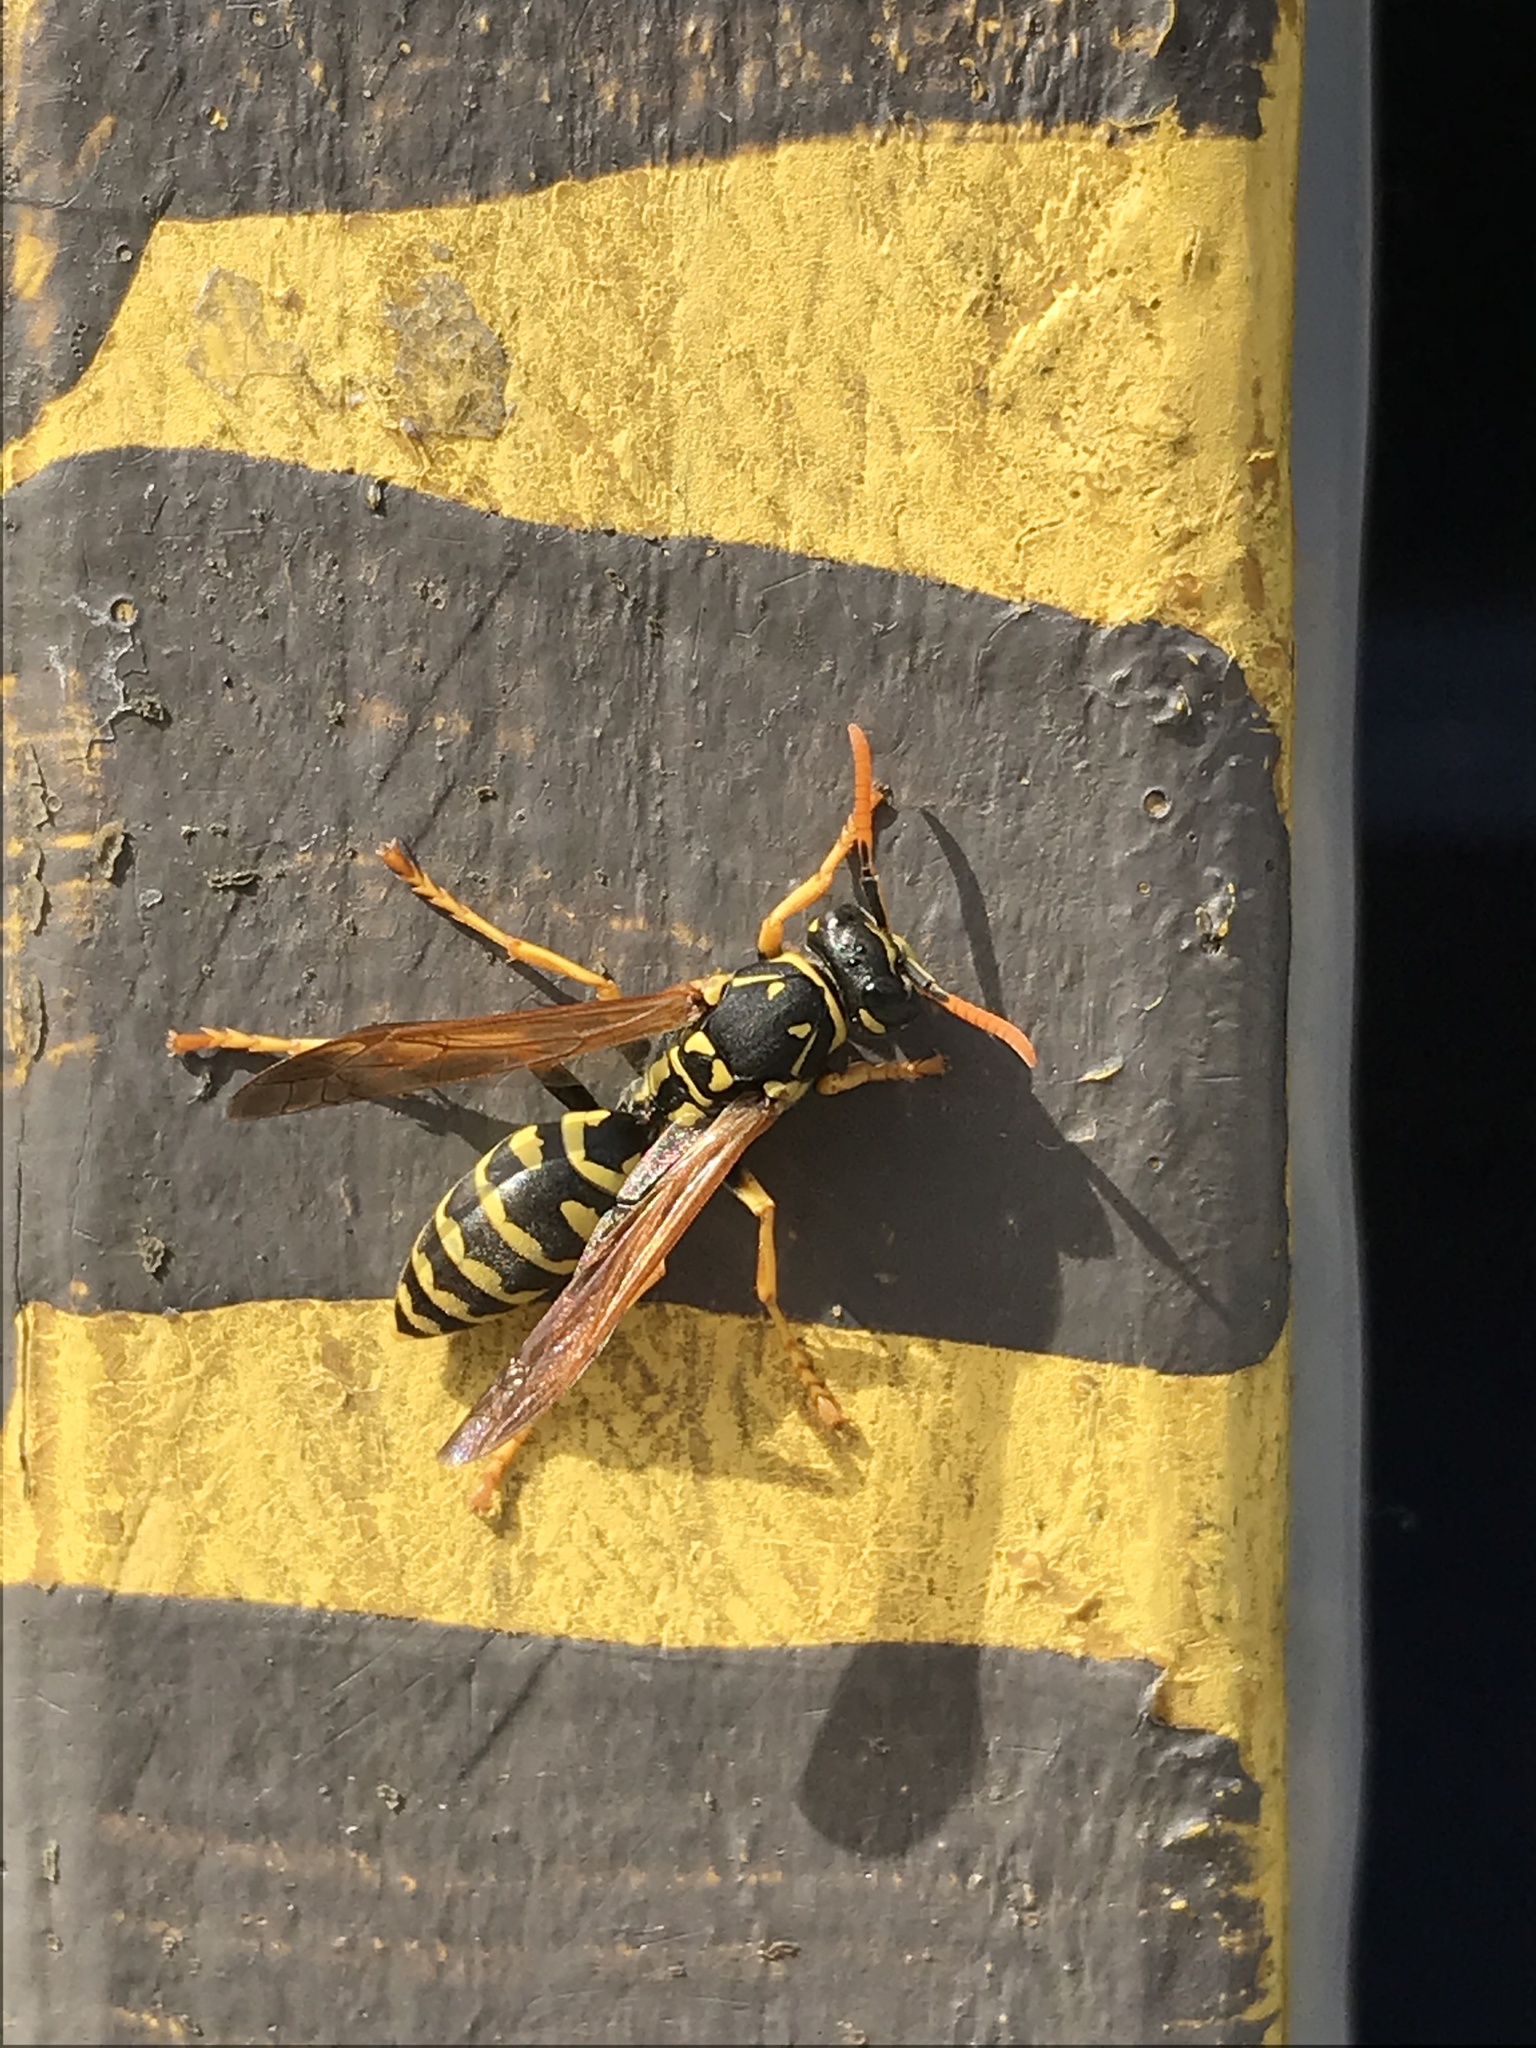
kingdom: Animalia
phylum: Arthropoda
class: Insecta
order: Hymenoptera
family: Eumenidae
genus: Polistes
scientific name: Polistes dominula
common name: Paper wasp
